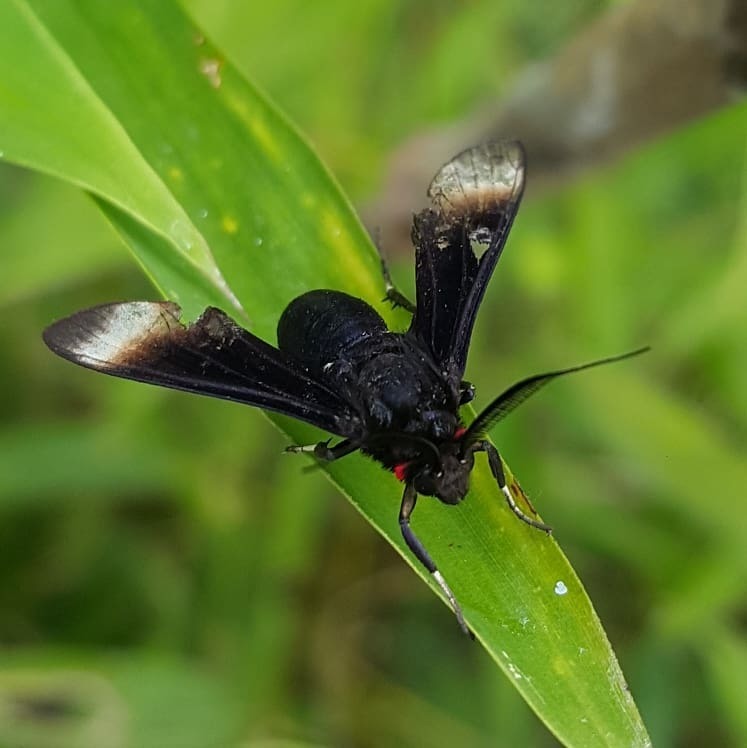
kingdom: Animalia
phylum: Arthropoda
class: Insecta
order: Lepidoptera
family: Erebidae
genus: Anycles
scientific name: Anycles anthracina
